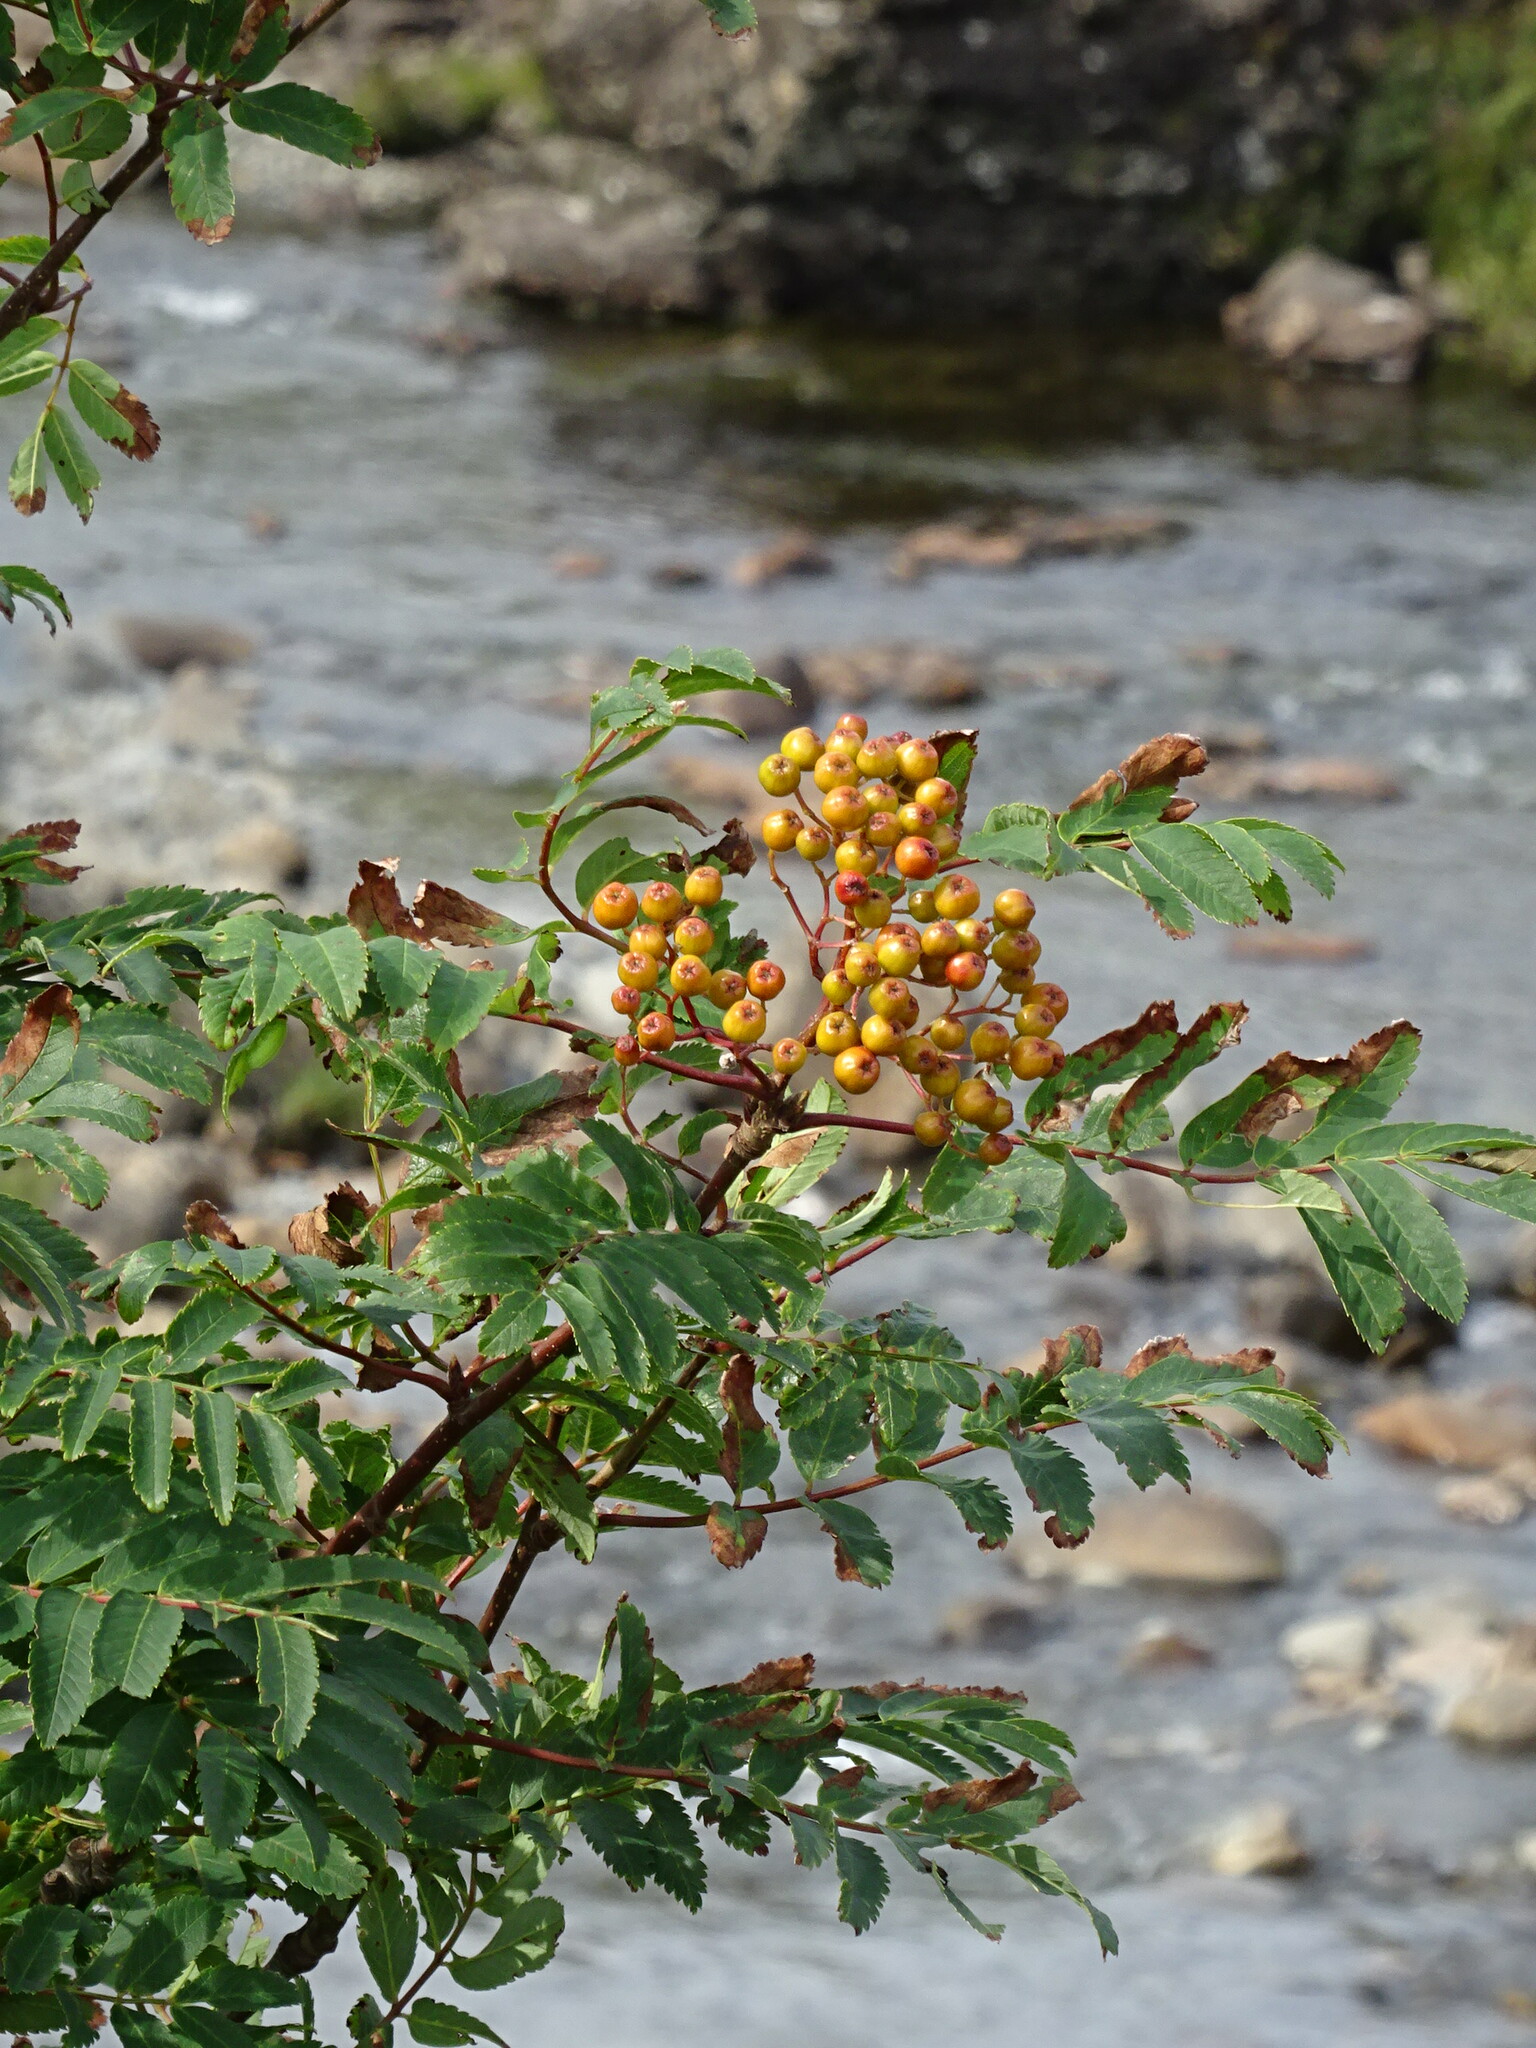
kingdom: Plantae
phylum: Tracheophyta
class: Magnoliopsida
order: Rosales
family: Rosaceae
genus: Sorbus
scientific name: Sorbus aucuparia
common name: Rowan
